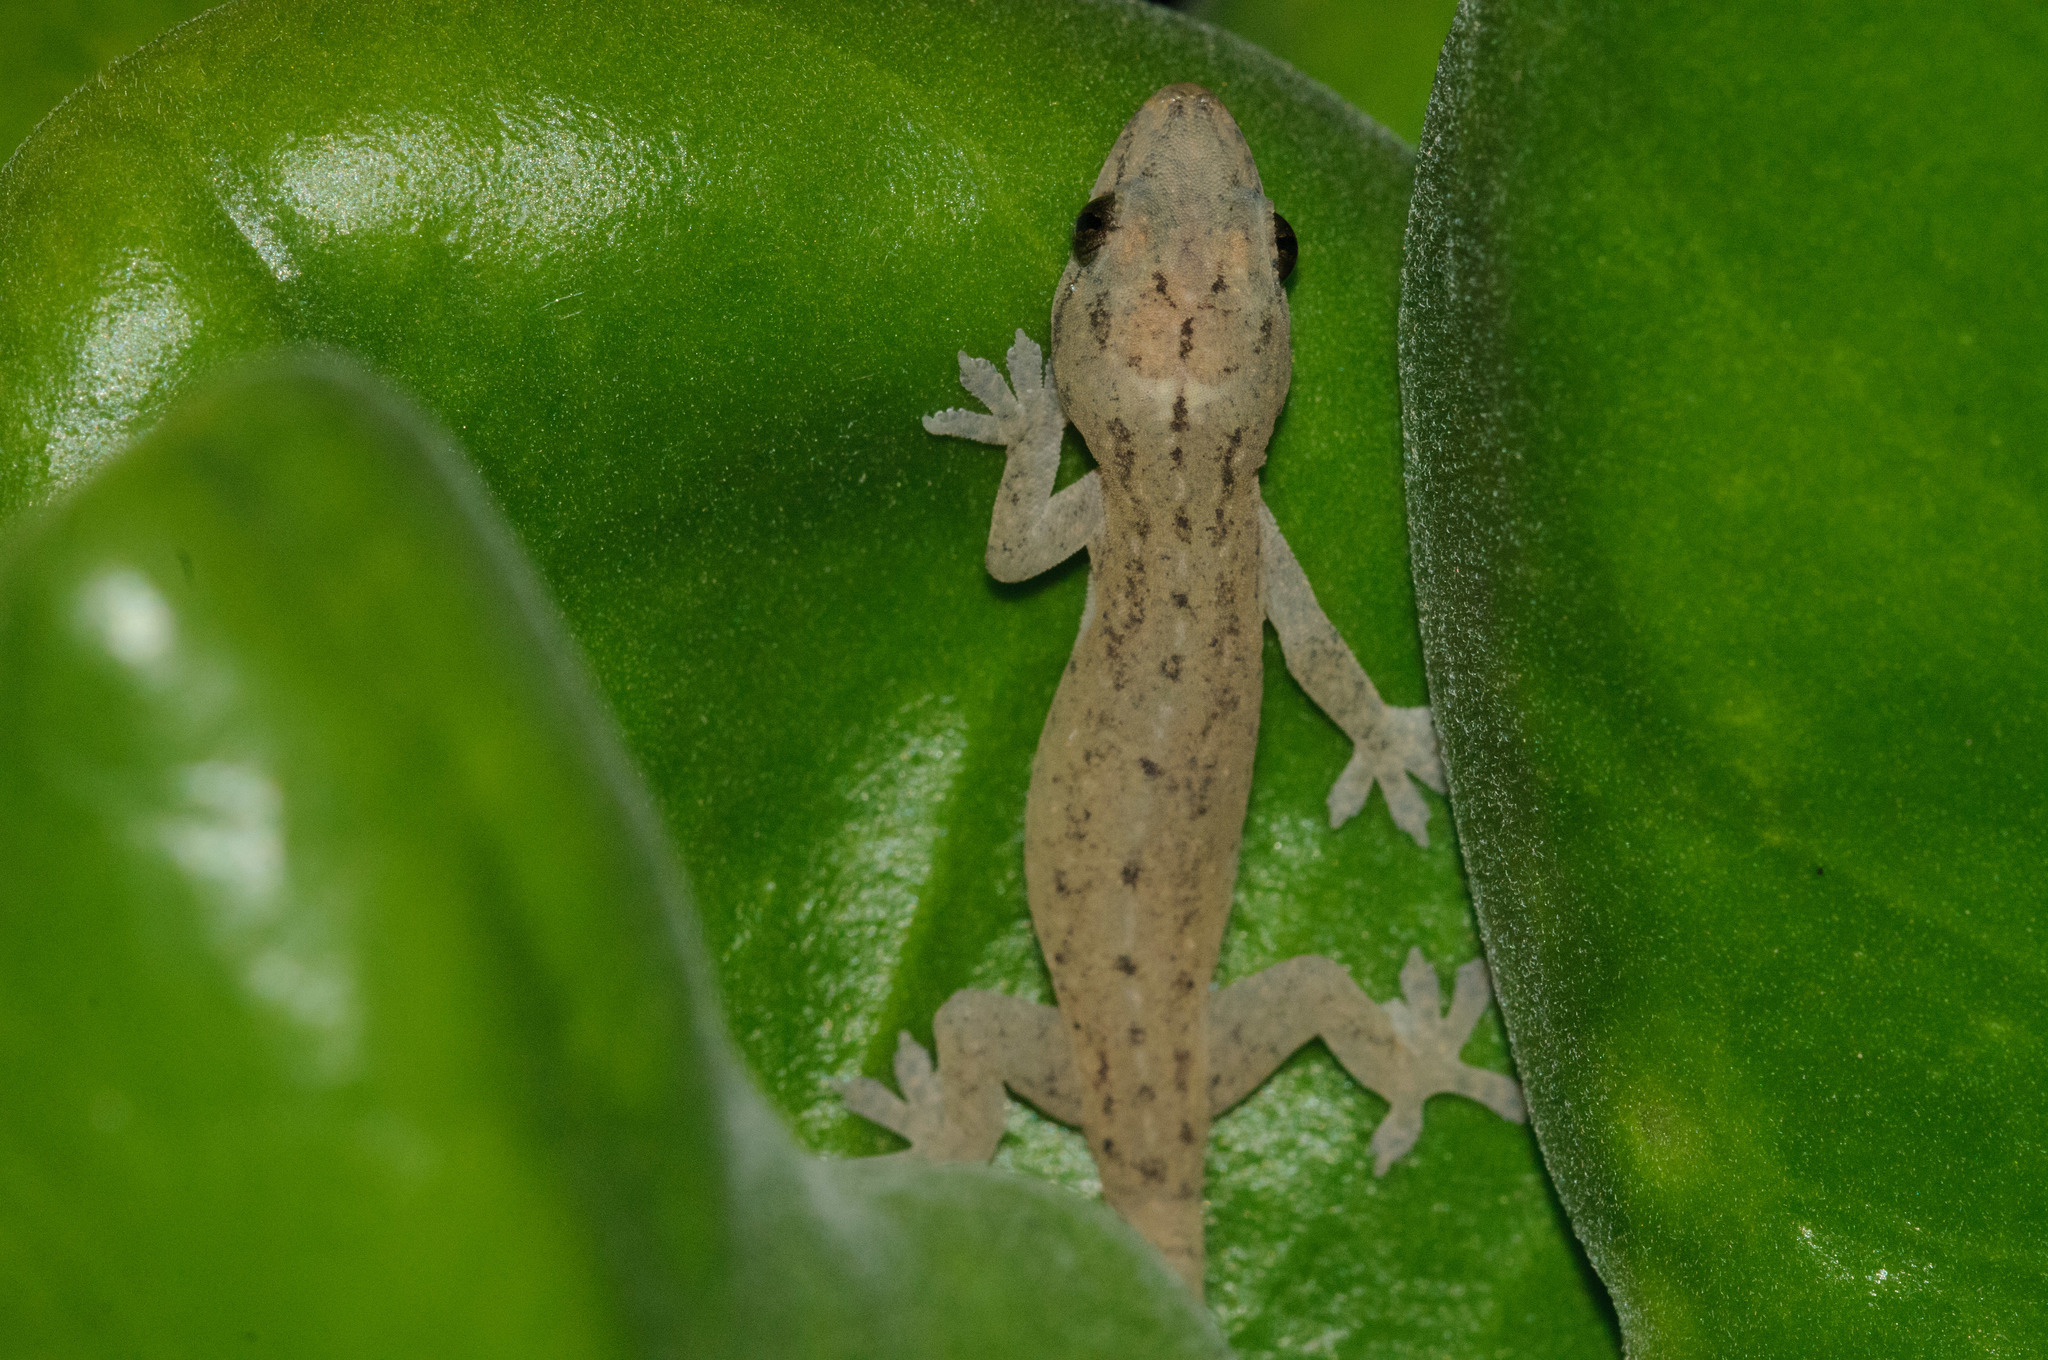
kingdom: Animalia
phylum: Chordata
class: Squamata
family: Gekkonidae
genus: Hemidactylus
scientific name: Hemidactylus frenatus
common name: Common house gecko
